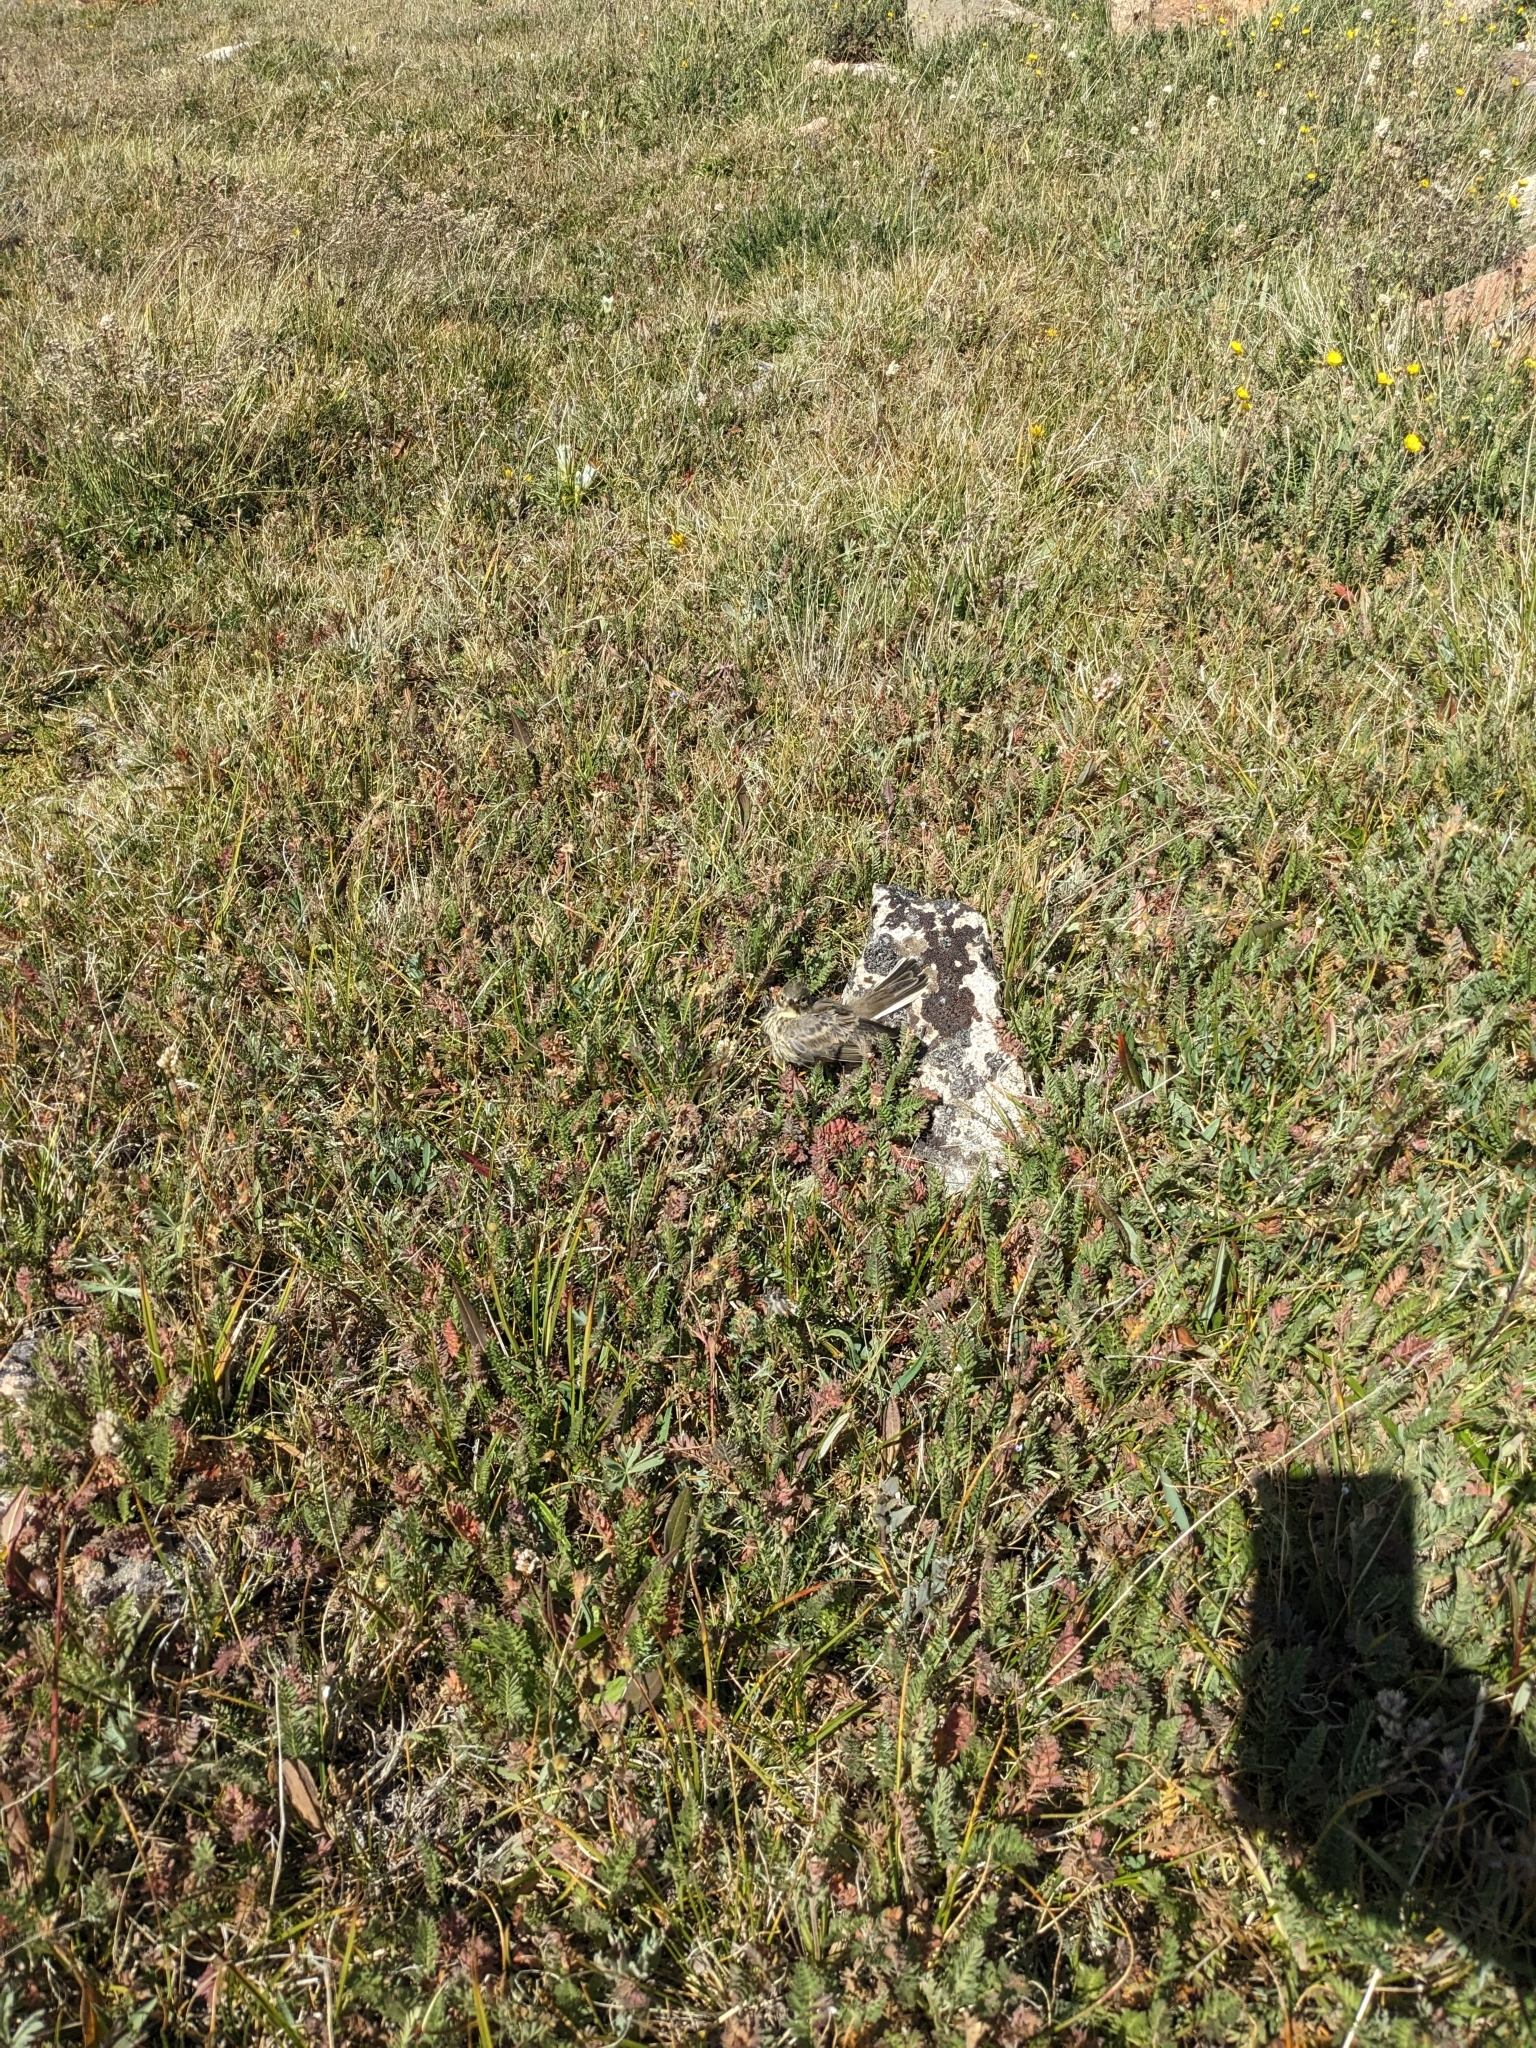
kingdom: Animalia
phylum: Chordata
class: Aves
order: Passeriformes
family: Motacillidae
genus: Anthus
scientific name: Anthus rubescens
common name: Buff-bellied pipit
